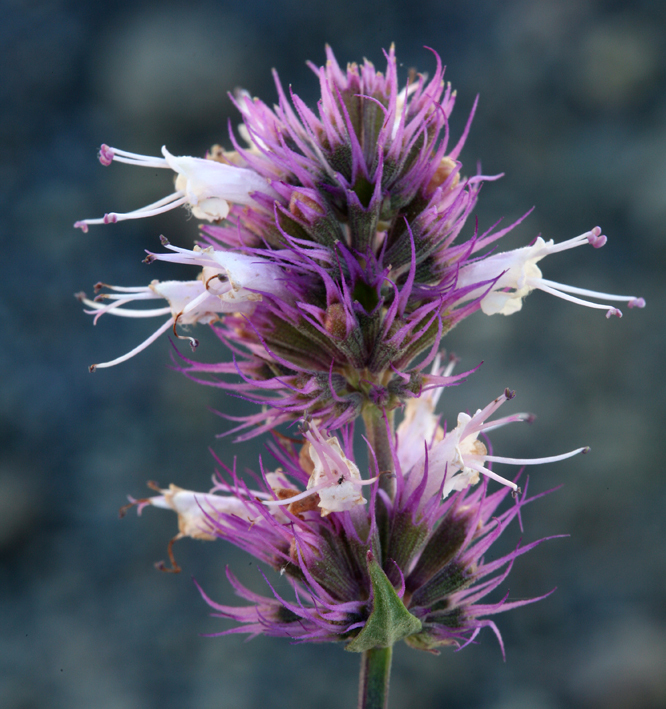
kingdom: Plantae
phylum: Tracheophyta
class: Magnoliopsida
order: Lamiales
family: Lamiaceae
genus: Agastache
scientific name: Agastache parvifolia
